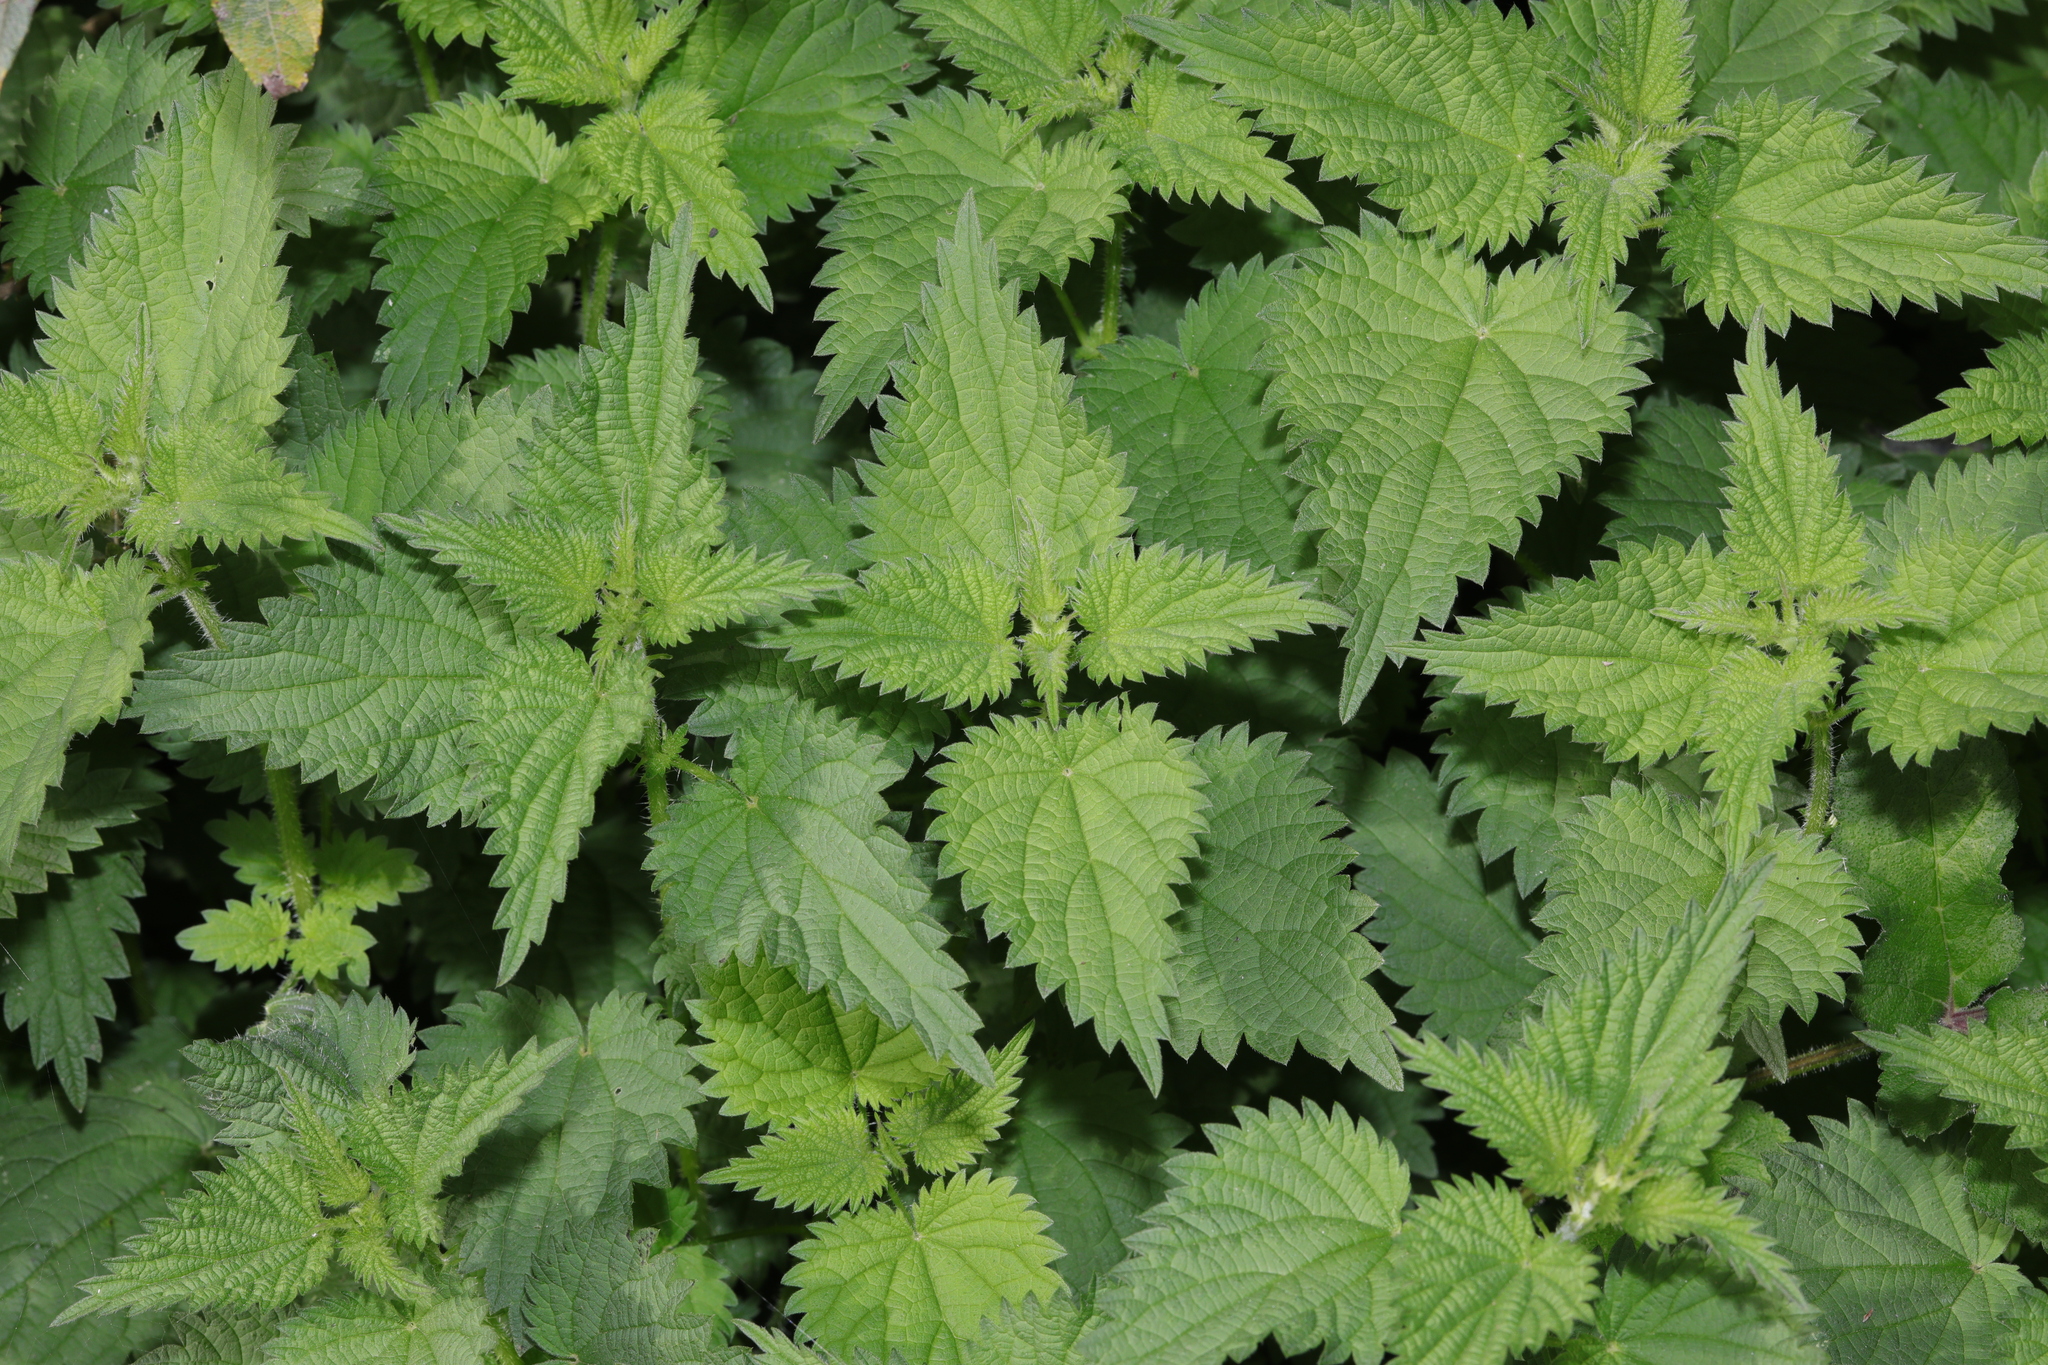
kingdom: Plantae
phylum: Tracheophyta
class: Magnoliopsida
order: Rosales
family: Urticaceae
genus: Urtica
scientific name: Urtica dioica
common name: Common nettle
